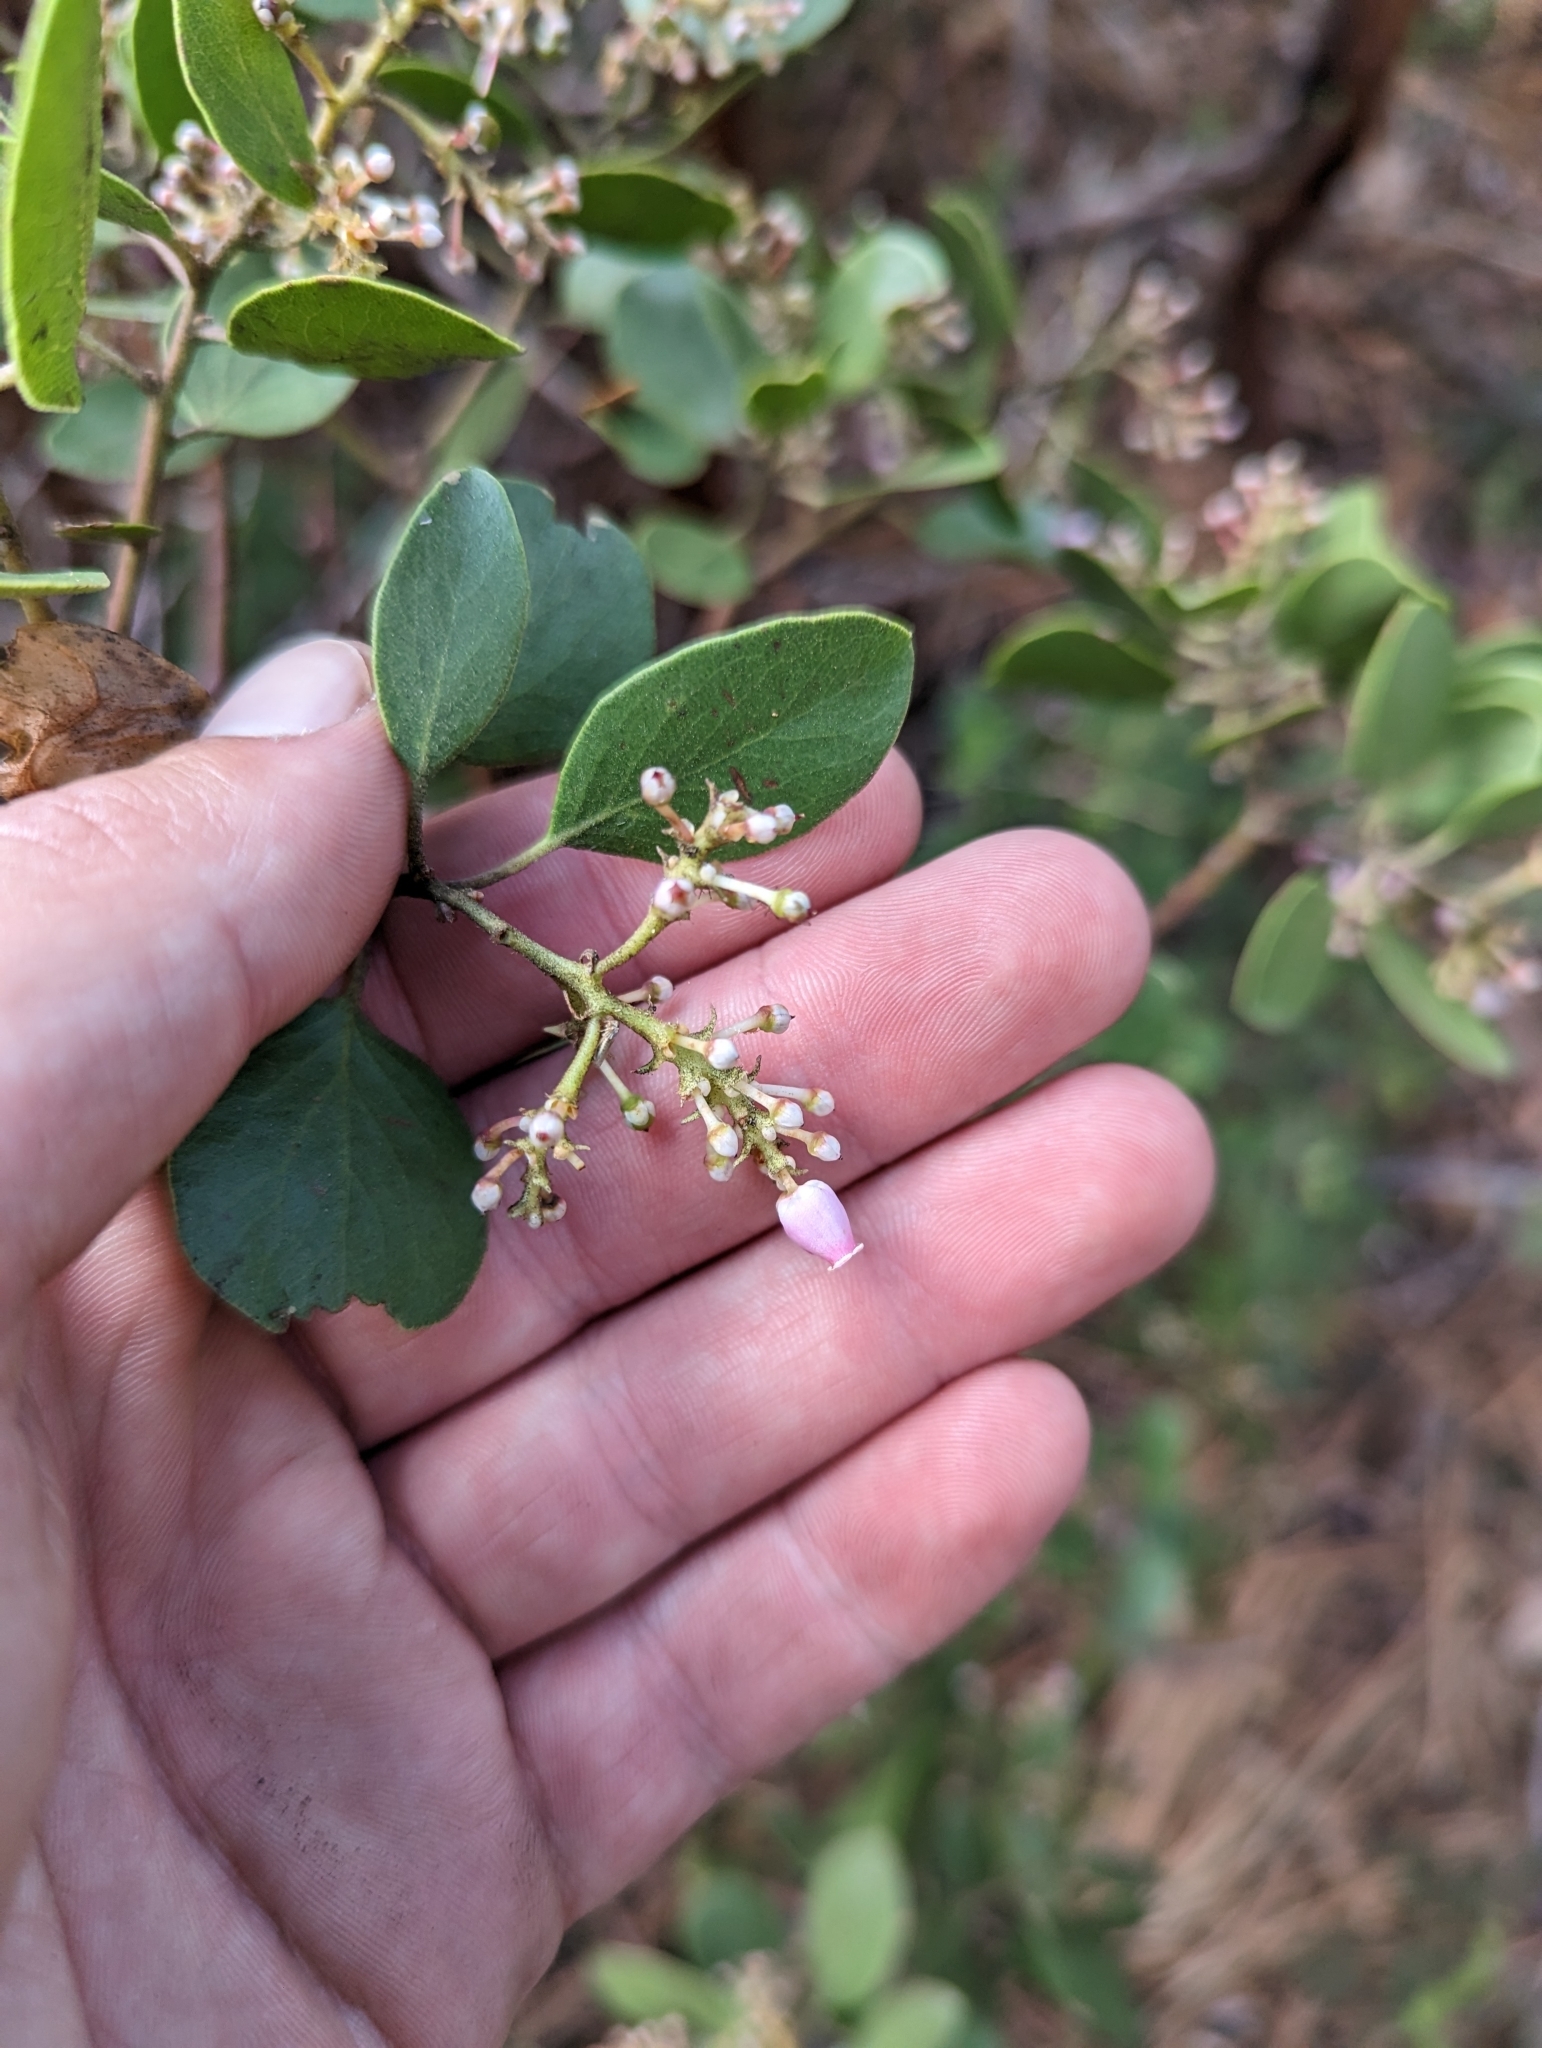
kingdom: Plantae
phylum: Tracheophyta
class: Magnoliopsida
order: Ericales
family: Ericaceae
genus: Arctostaphylos
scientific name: Arctostaphylos patula
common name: Green-leaf manzanita
